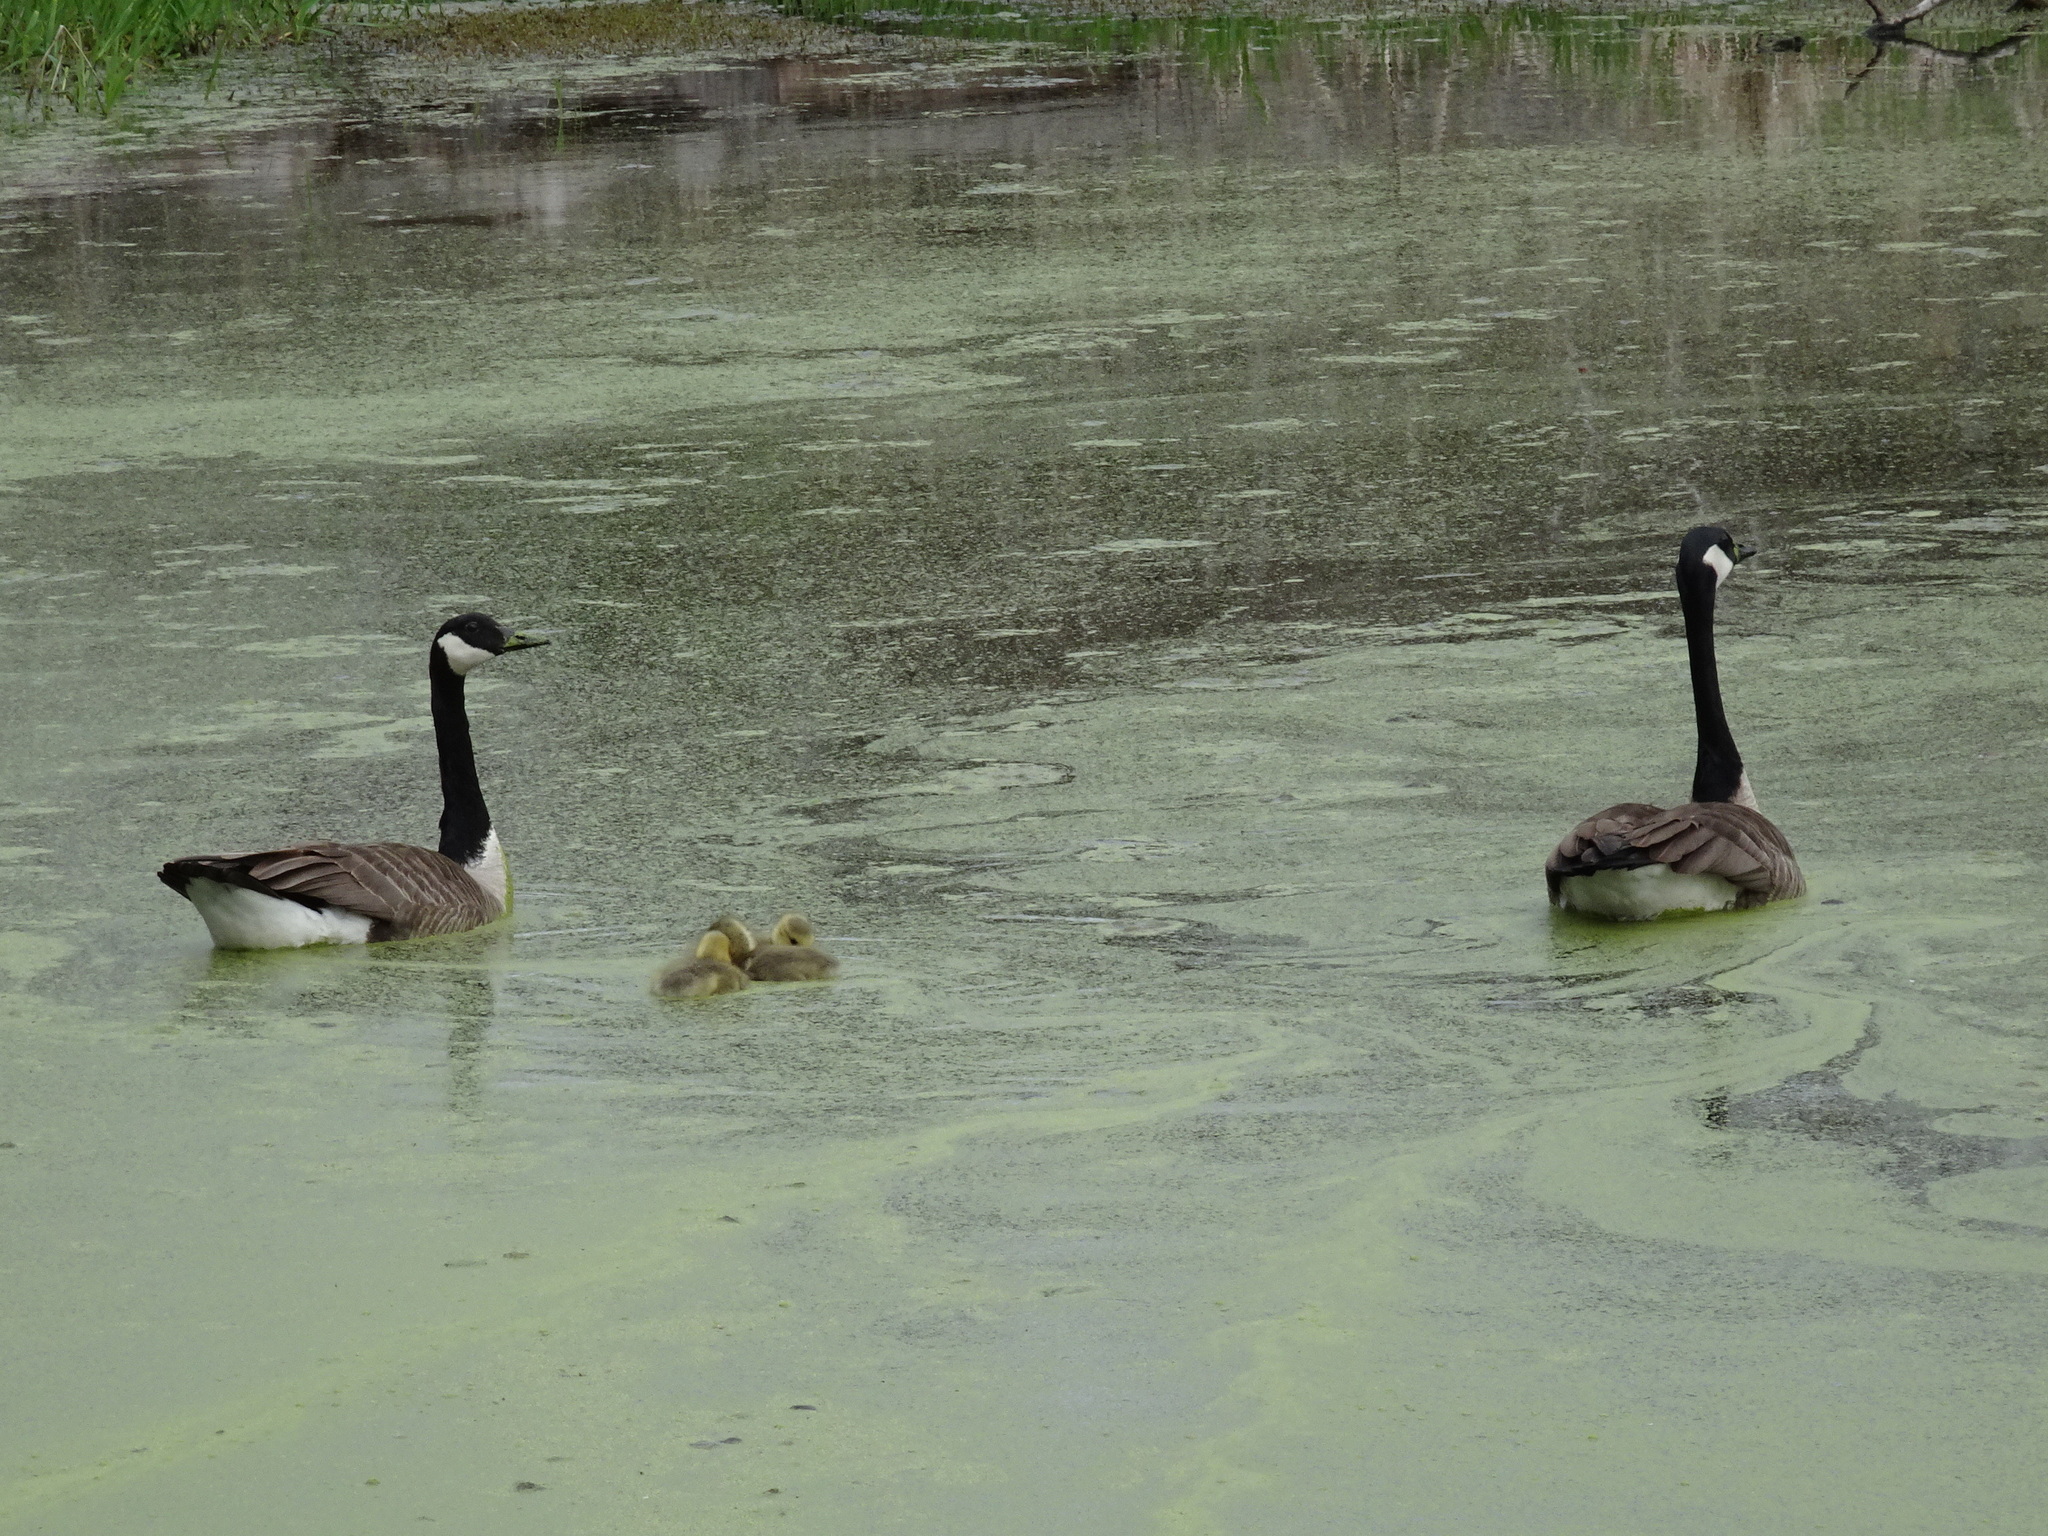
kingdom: Animalia
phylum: Chordata
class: Aves
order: Anseriformes
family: Anatidae
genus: Branta
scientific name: Branta canadensis
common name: Canada goose
